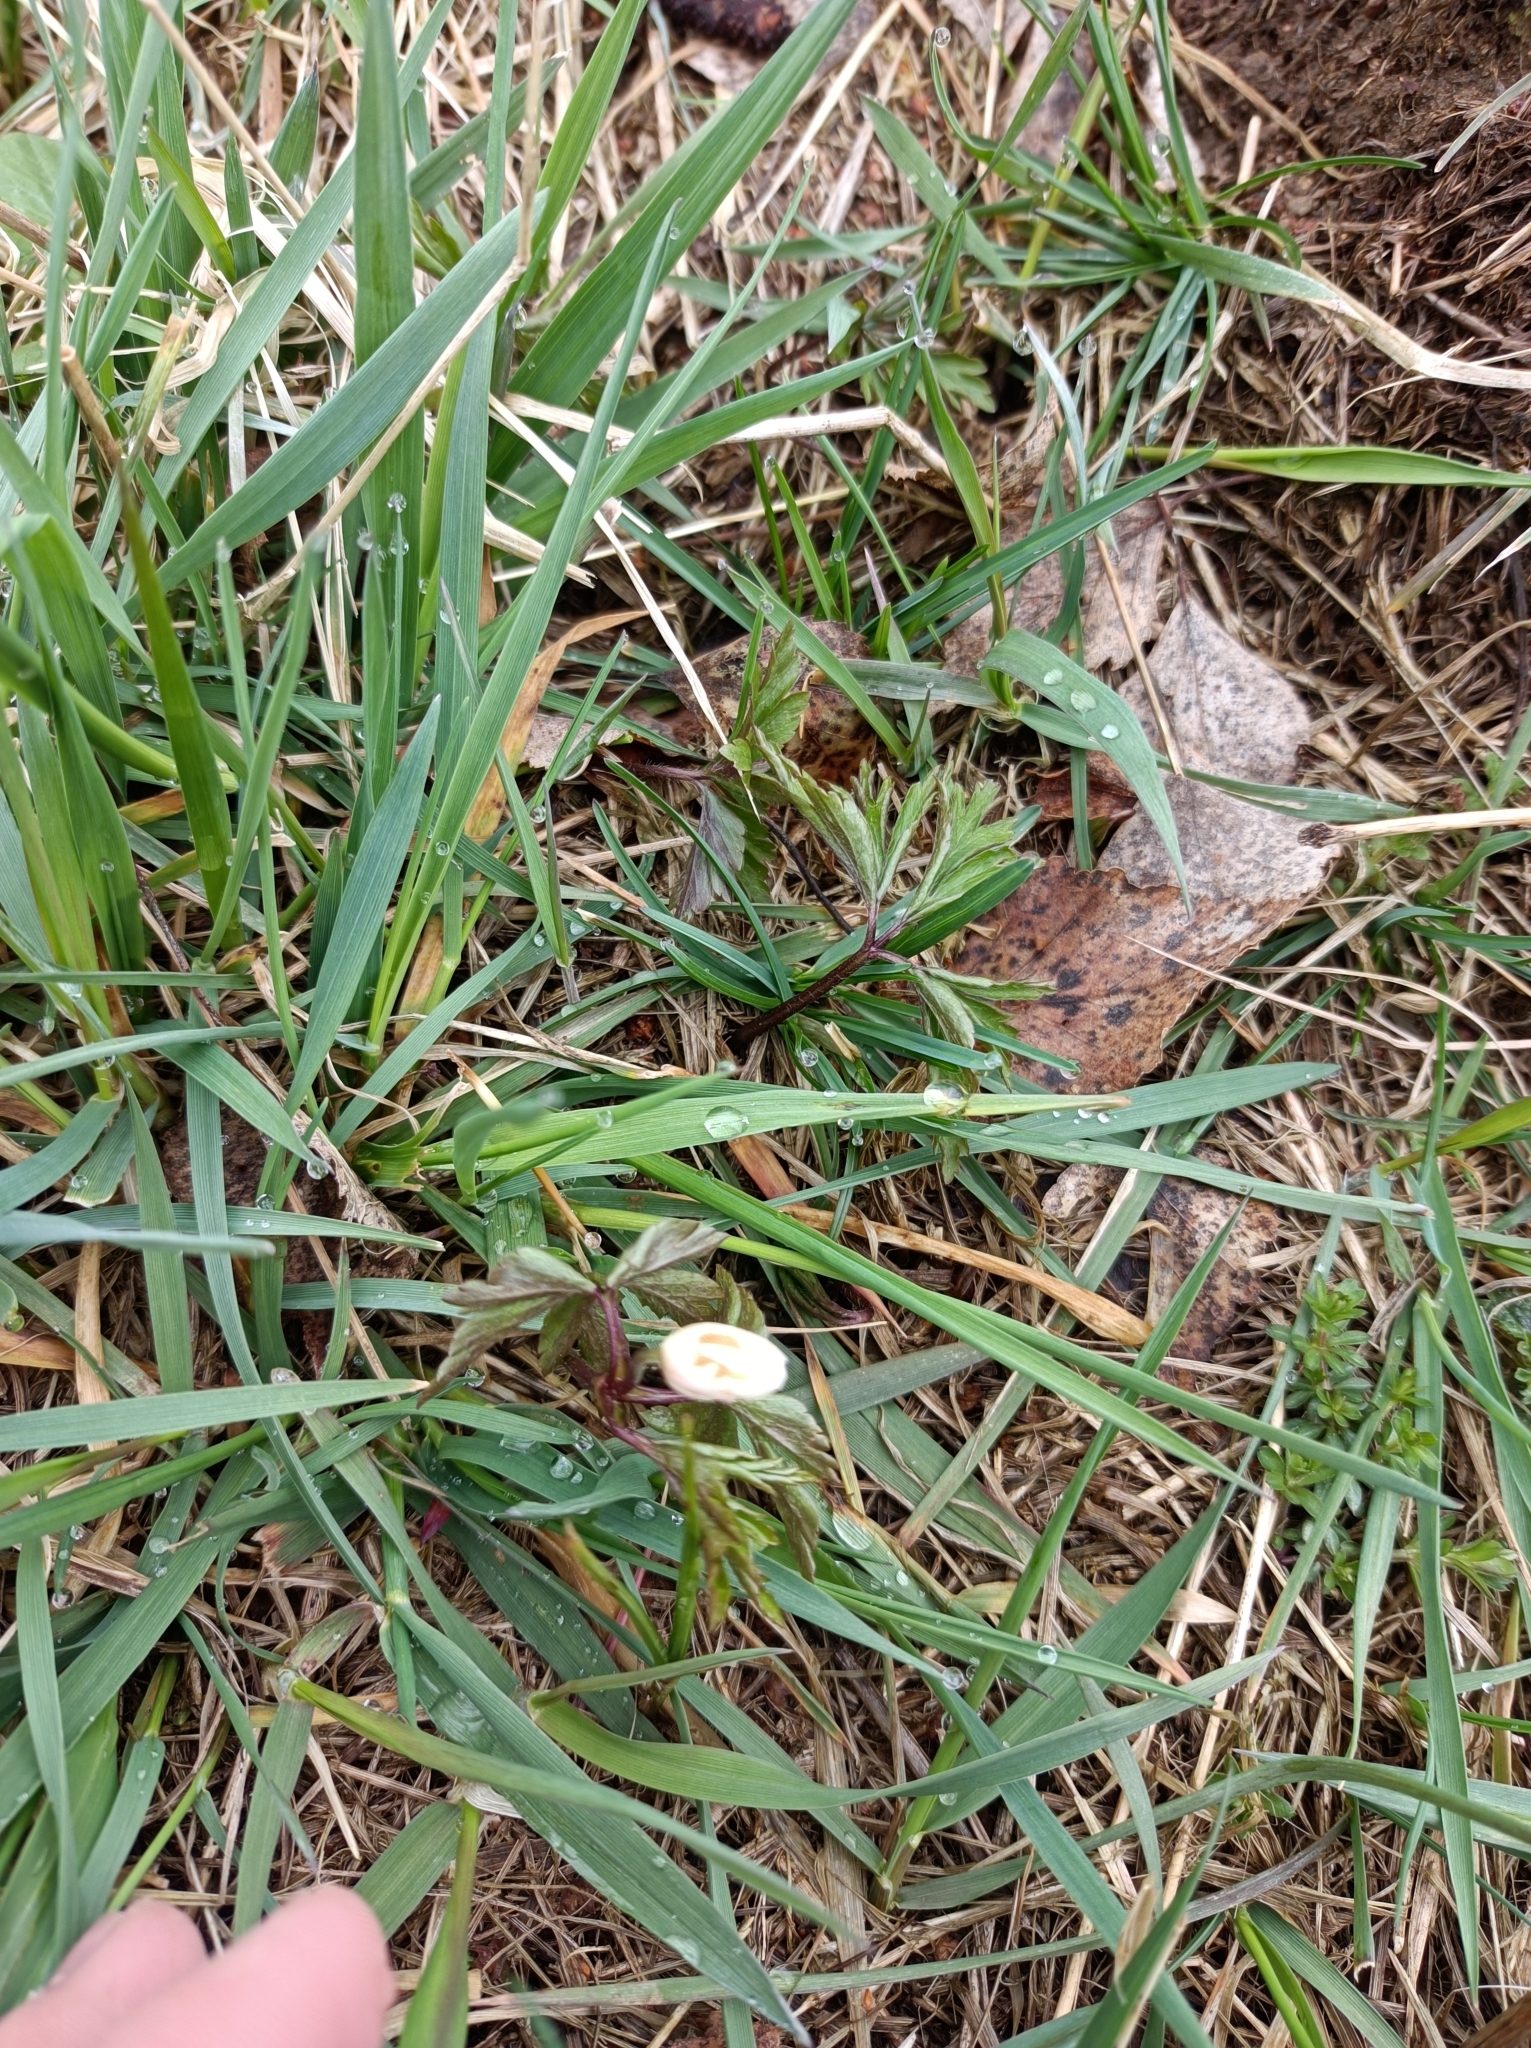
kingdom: Plantae
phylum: Tracheophyta
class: Magnoliopsida
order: Ranunculales
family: Ranunculaceae
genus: Anemone
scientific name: Anemone nemorosa
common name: Wood anemone
